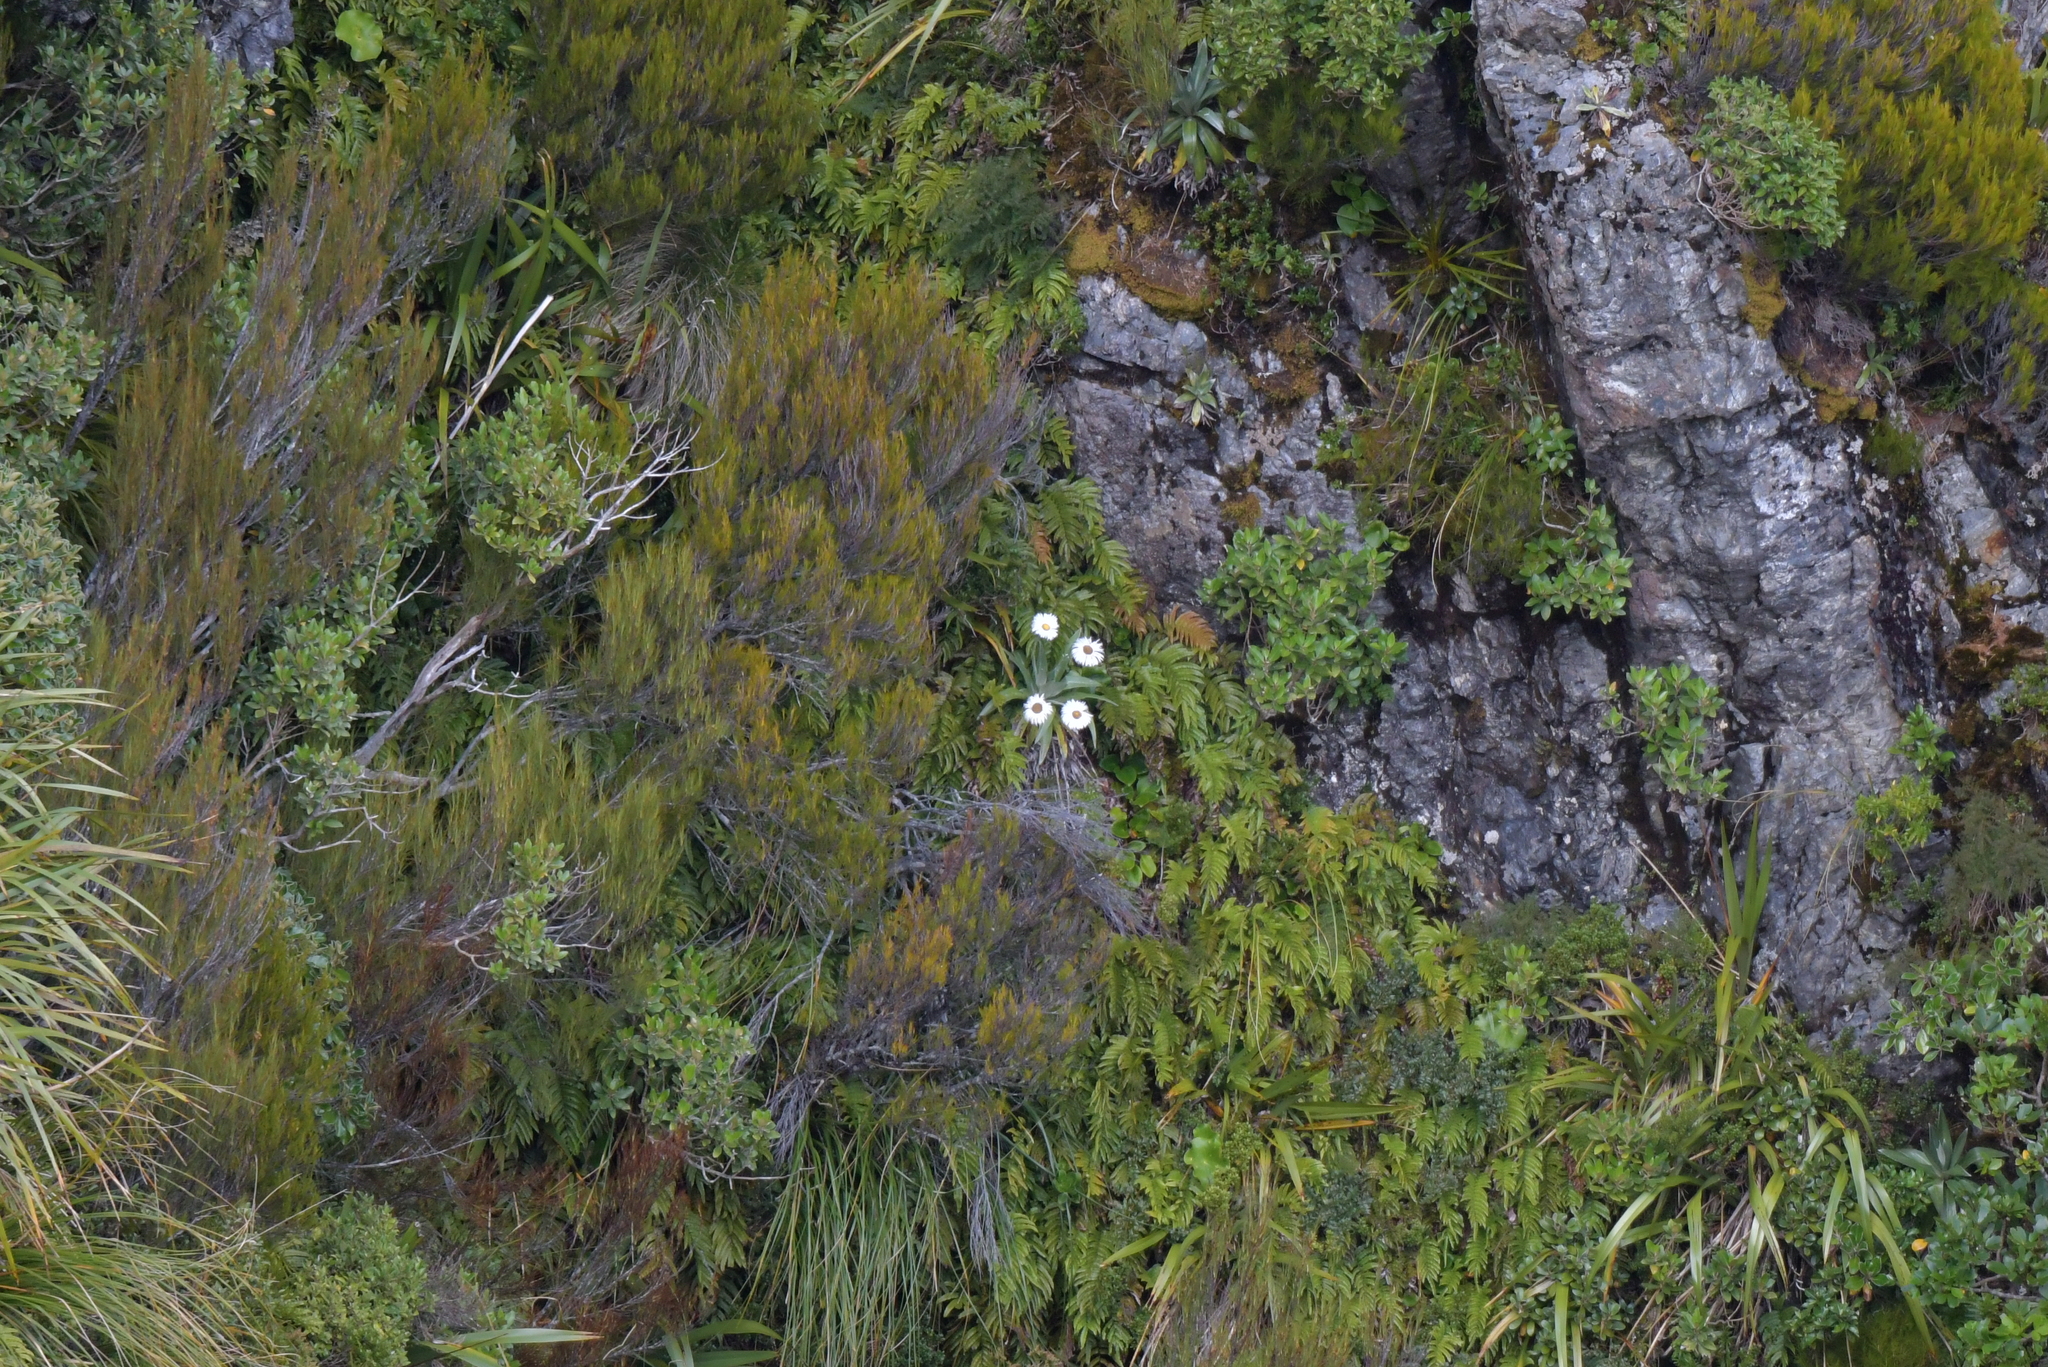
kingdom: Plantae
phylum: Tracheophyta
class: Magnoliopsida
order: Asterales
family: Asteraceae
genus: Celmisia
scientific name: Celmisia semicordata
